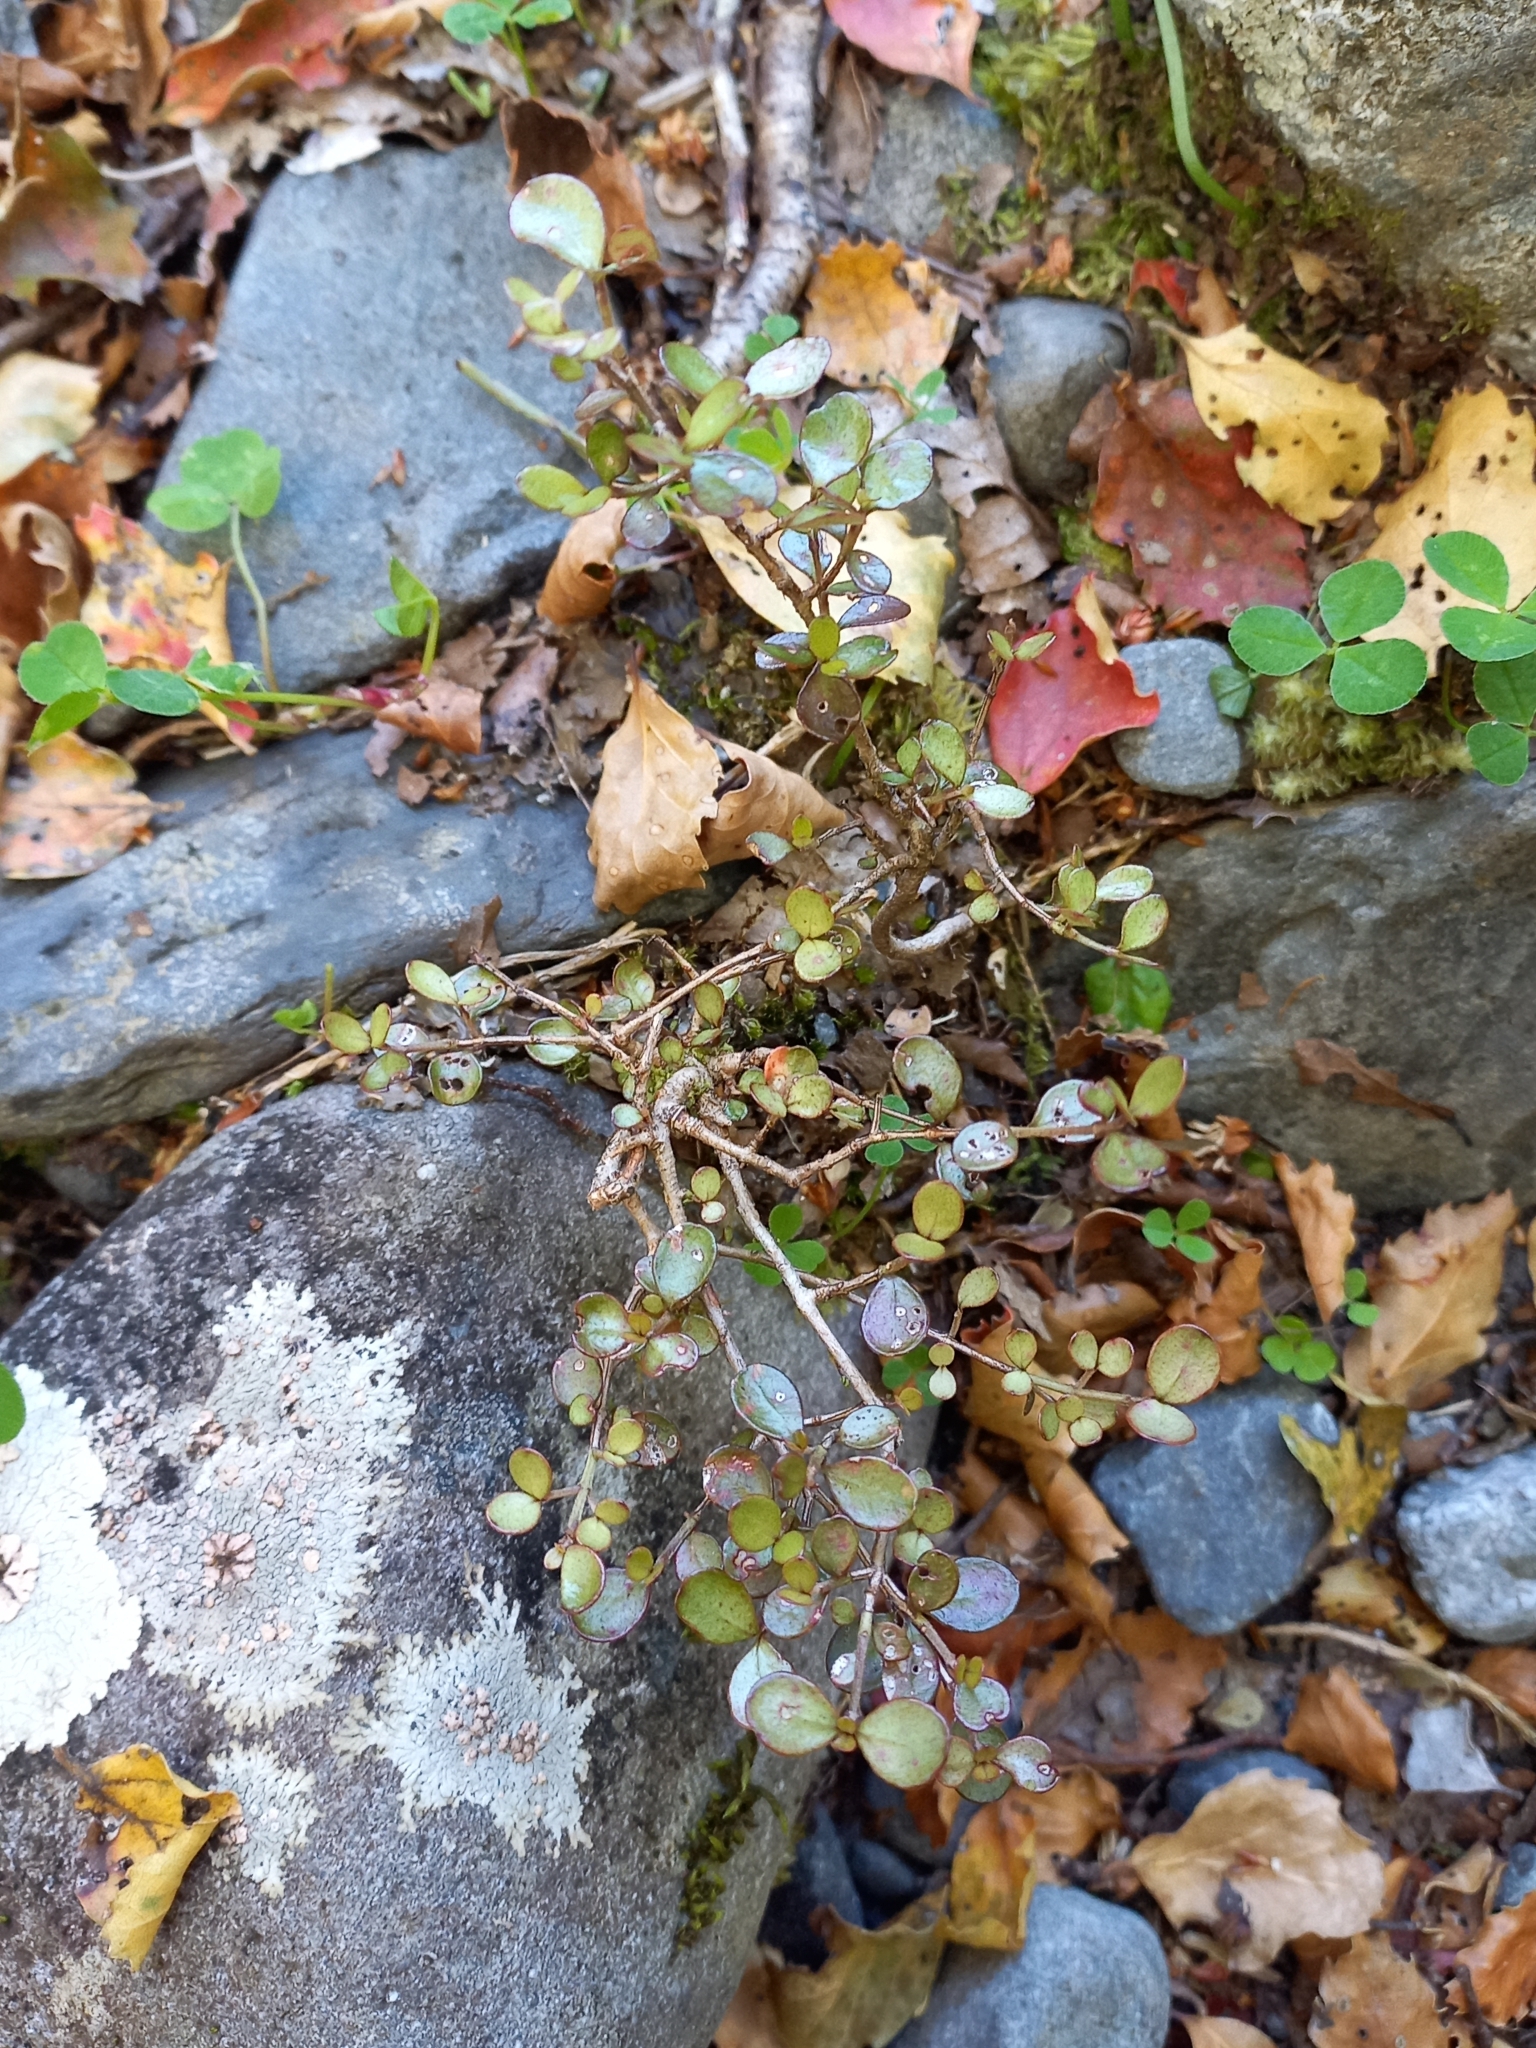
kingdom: Plantae
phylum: Tracheophyta
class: Magnoliopsida
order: Myrtales
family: Myrtaceae
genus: Neomyrtus
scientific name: Neomyrtus pedunculata
